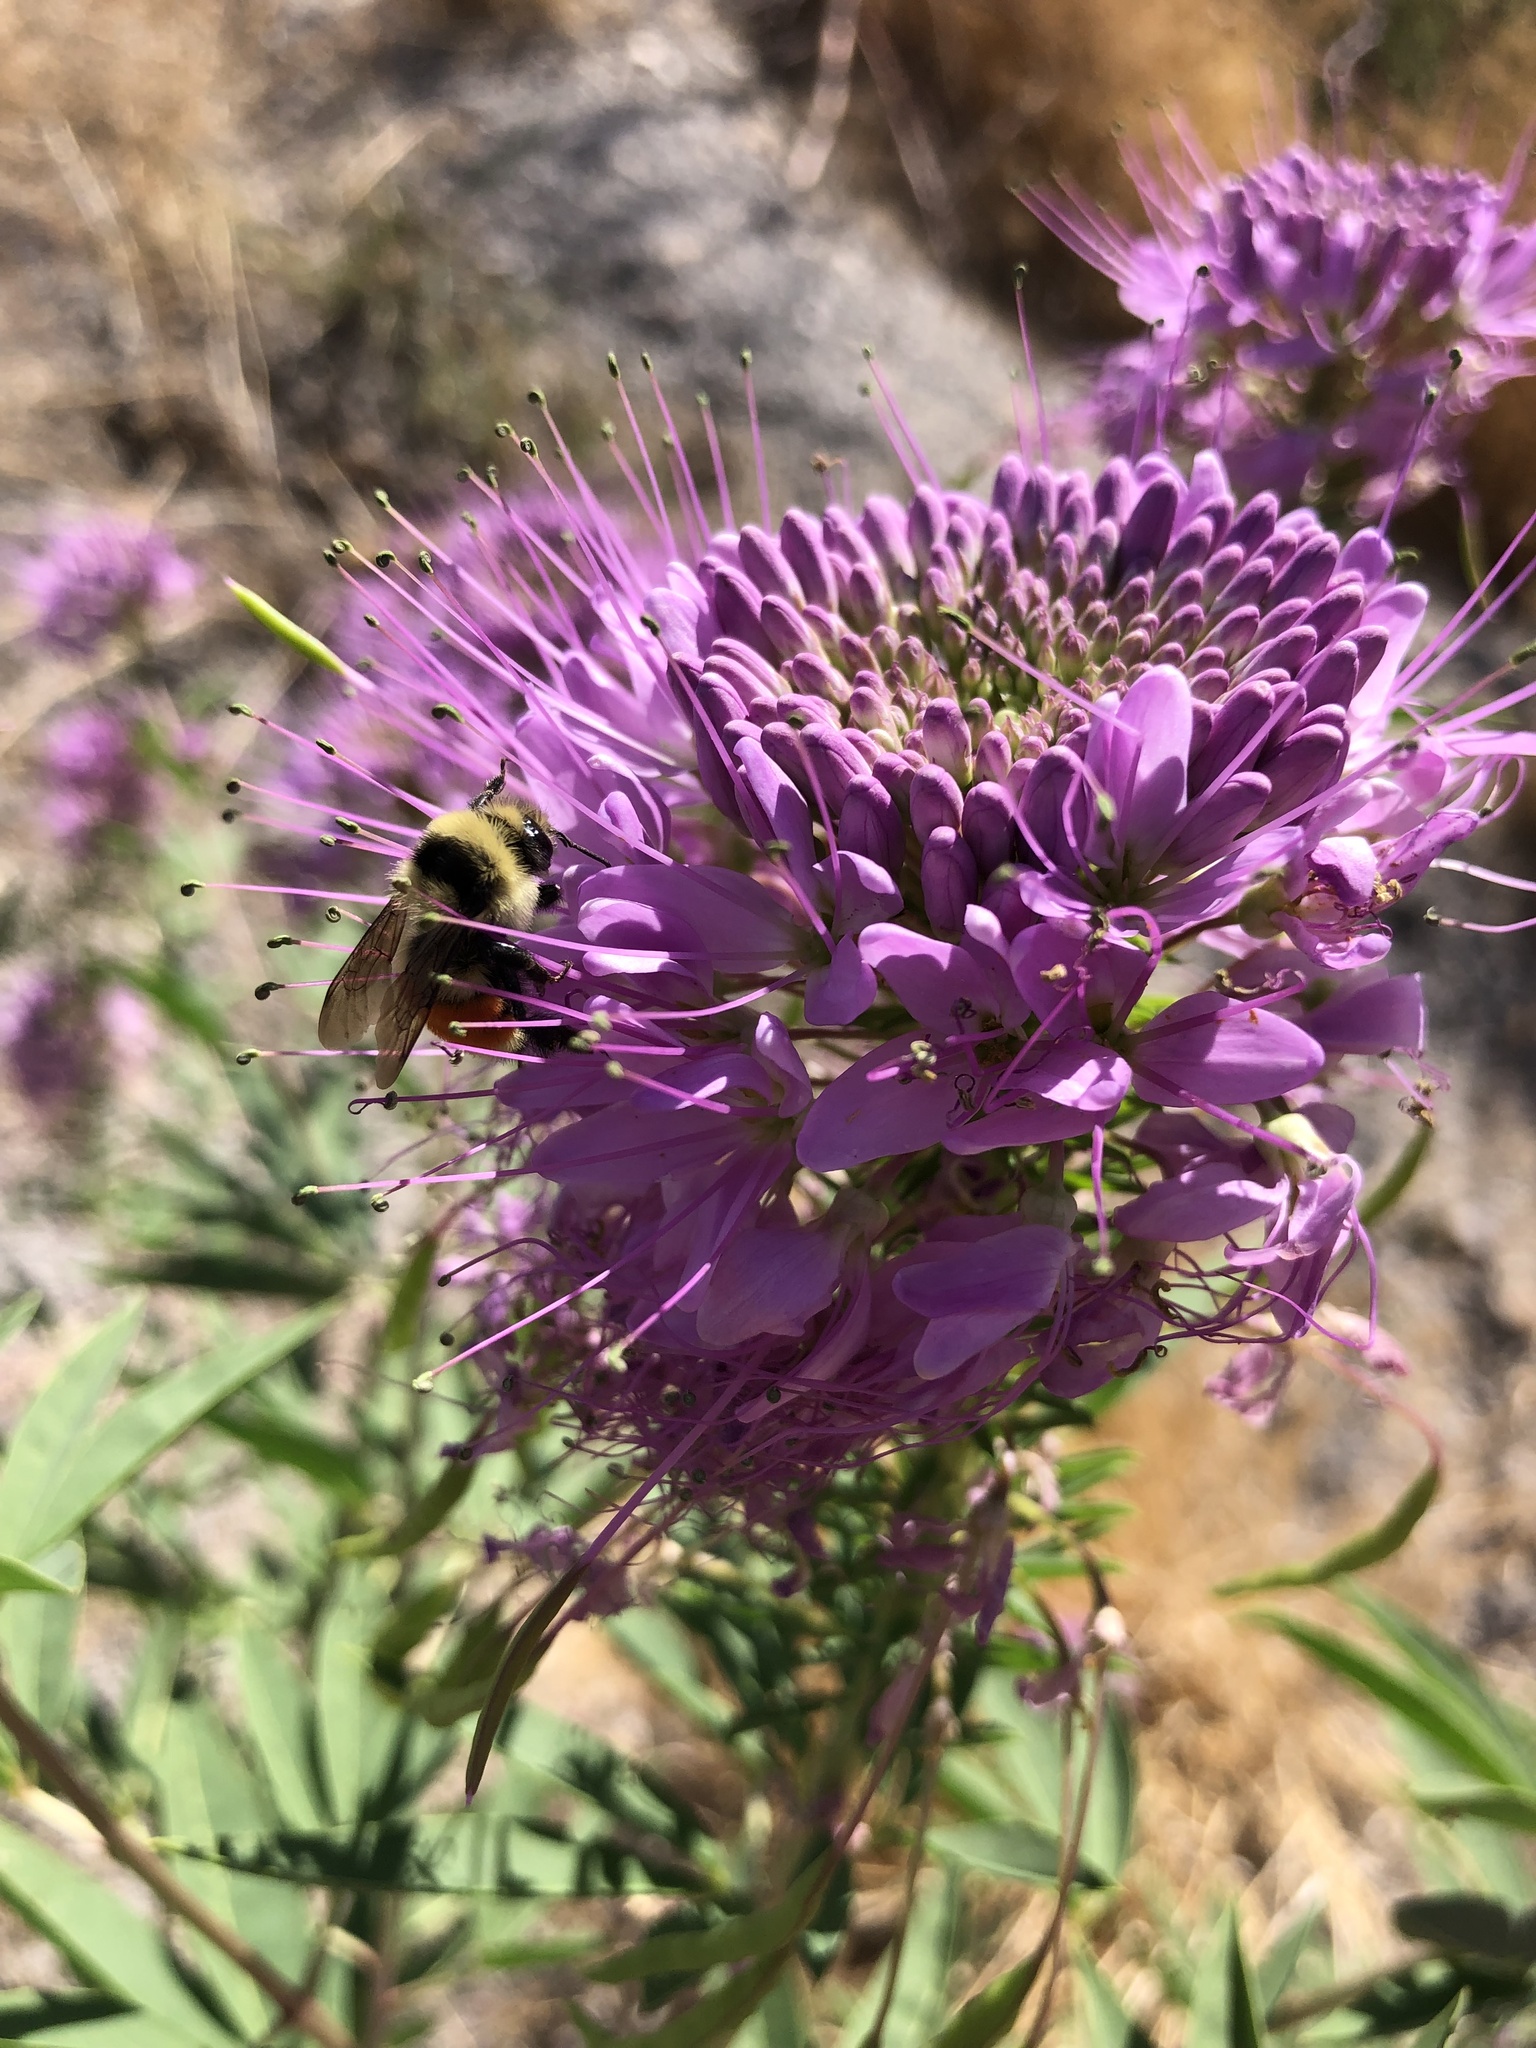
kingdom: Plantae
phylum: Tracheophyta
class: Magnoliopsida
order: Brassicales
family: Cleomaceae
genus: Cleomella
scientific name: Cleomella serrulata
